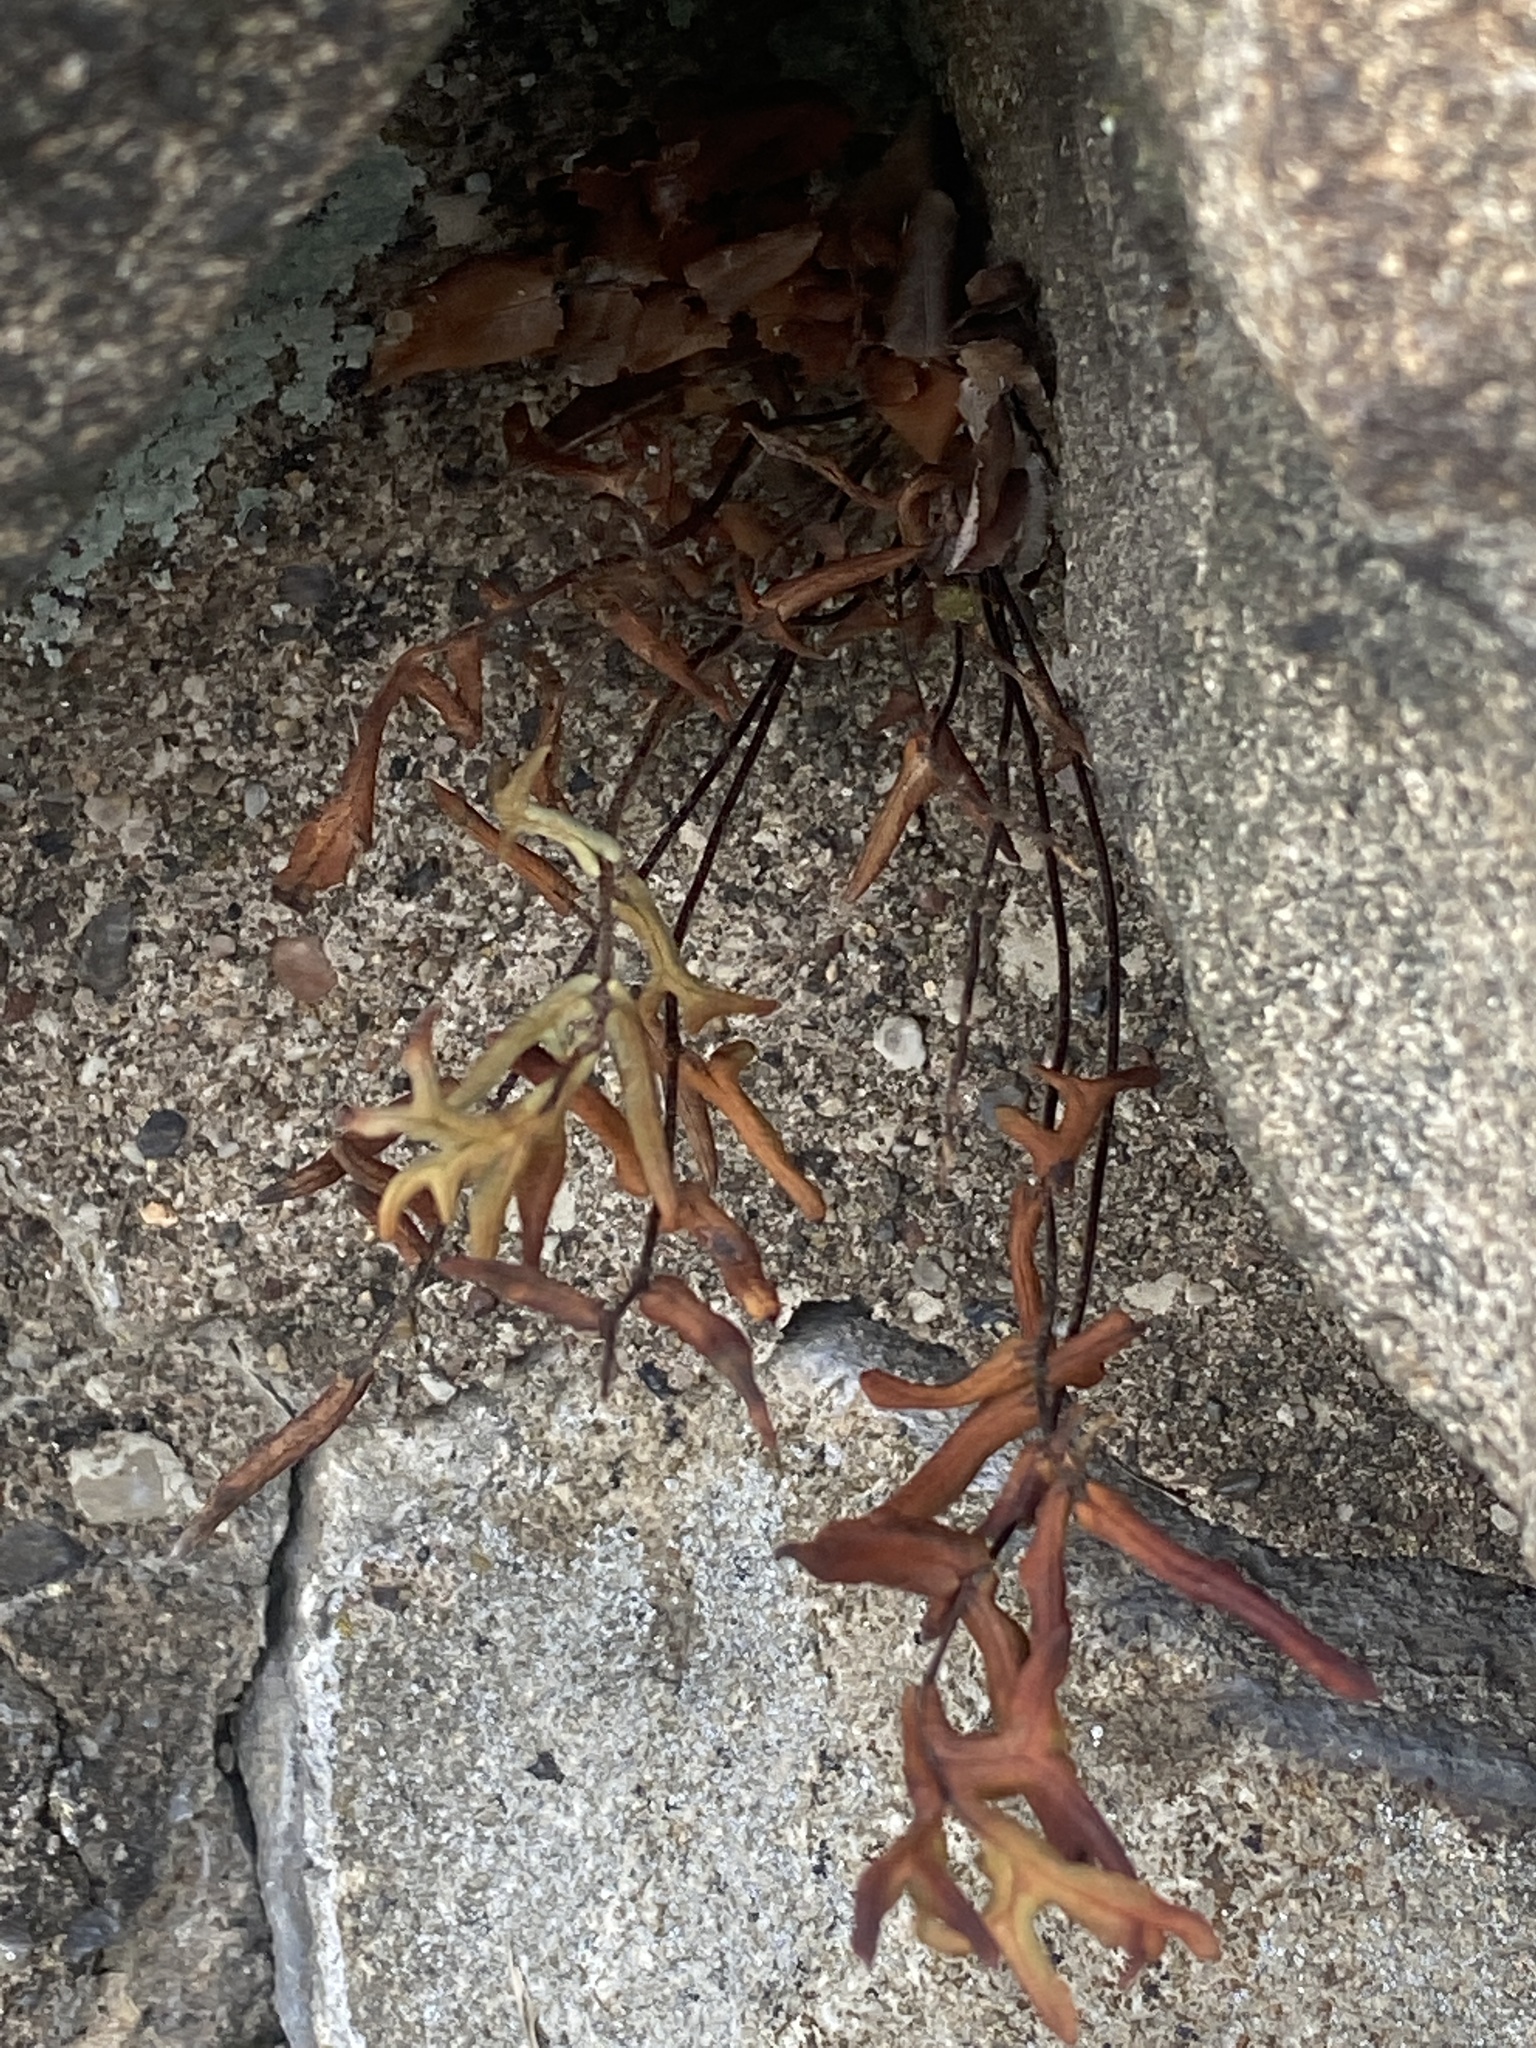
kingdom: Plantae
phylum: Tracheophyta
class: Polypodiopsida
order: Polypodiales
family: Pteridaceae
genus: Pellaea
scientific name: Pellaea atropurpurea
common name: Hairy cliffbrake
